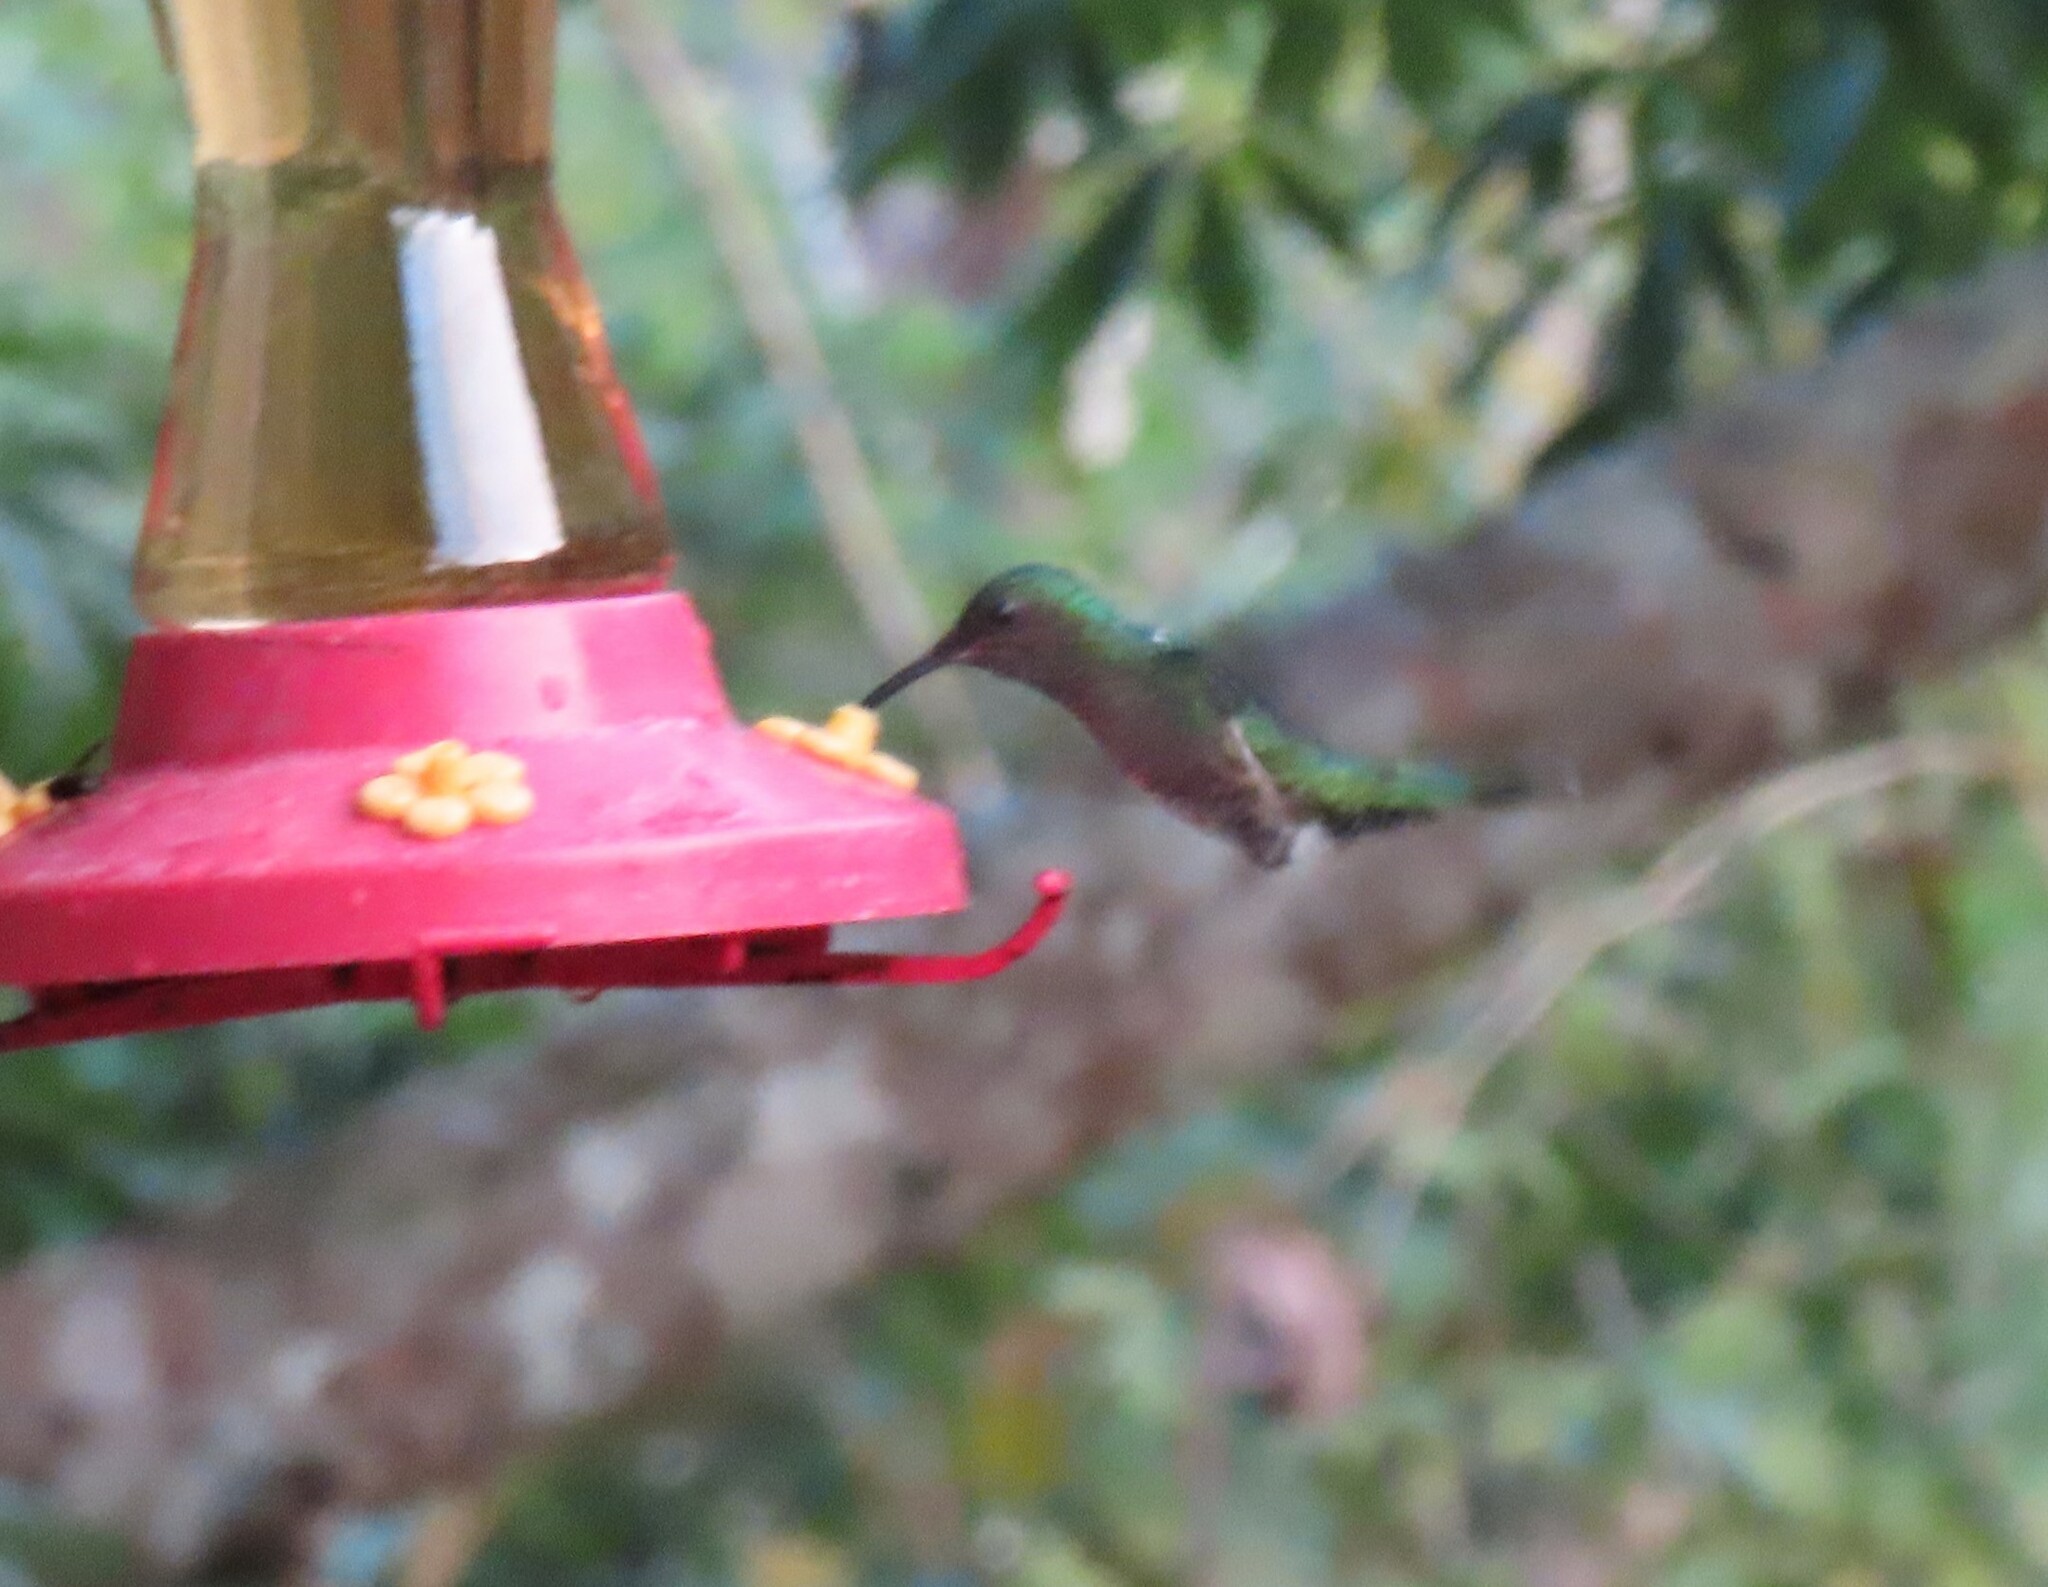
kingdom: Animalia
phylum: Chordata
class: Aves
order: Apodiformes
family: Trochilidae
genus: Florisuga
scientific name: Florisuga mellivora
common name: White-necked jacobin
